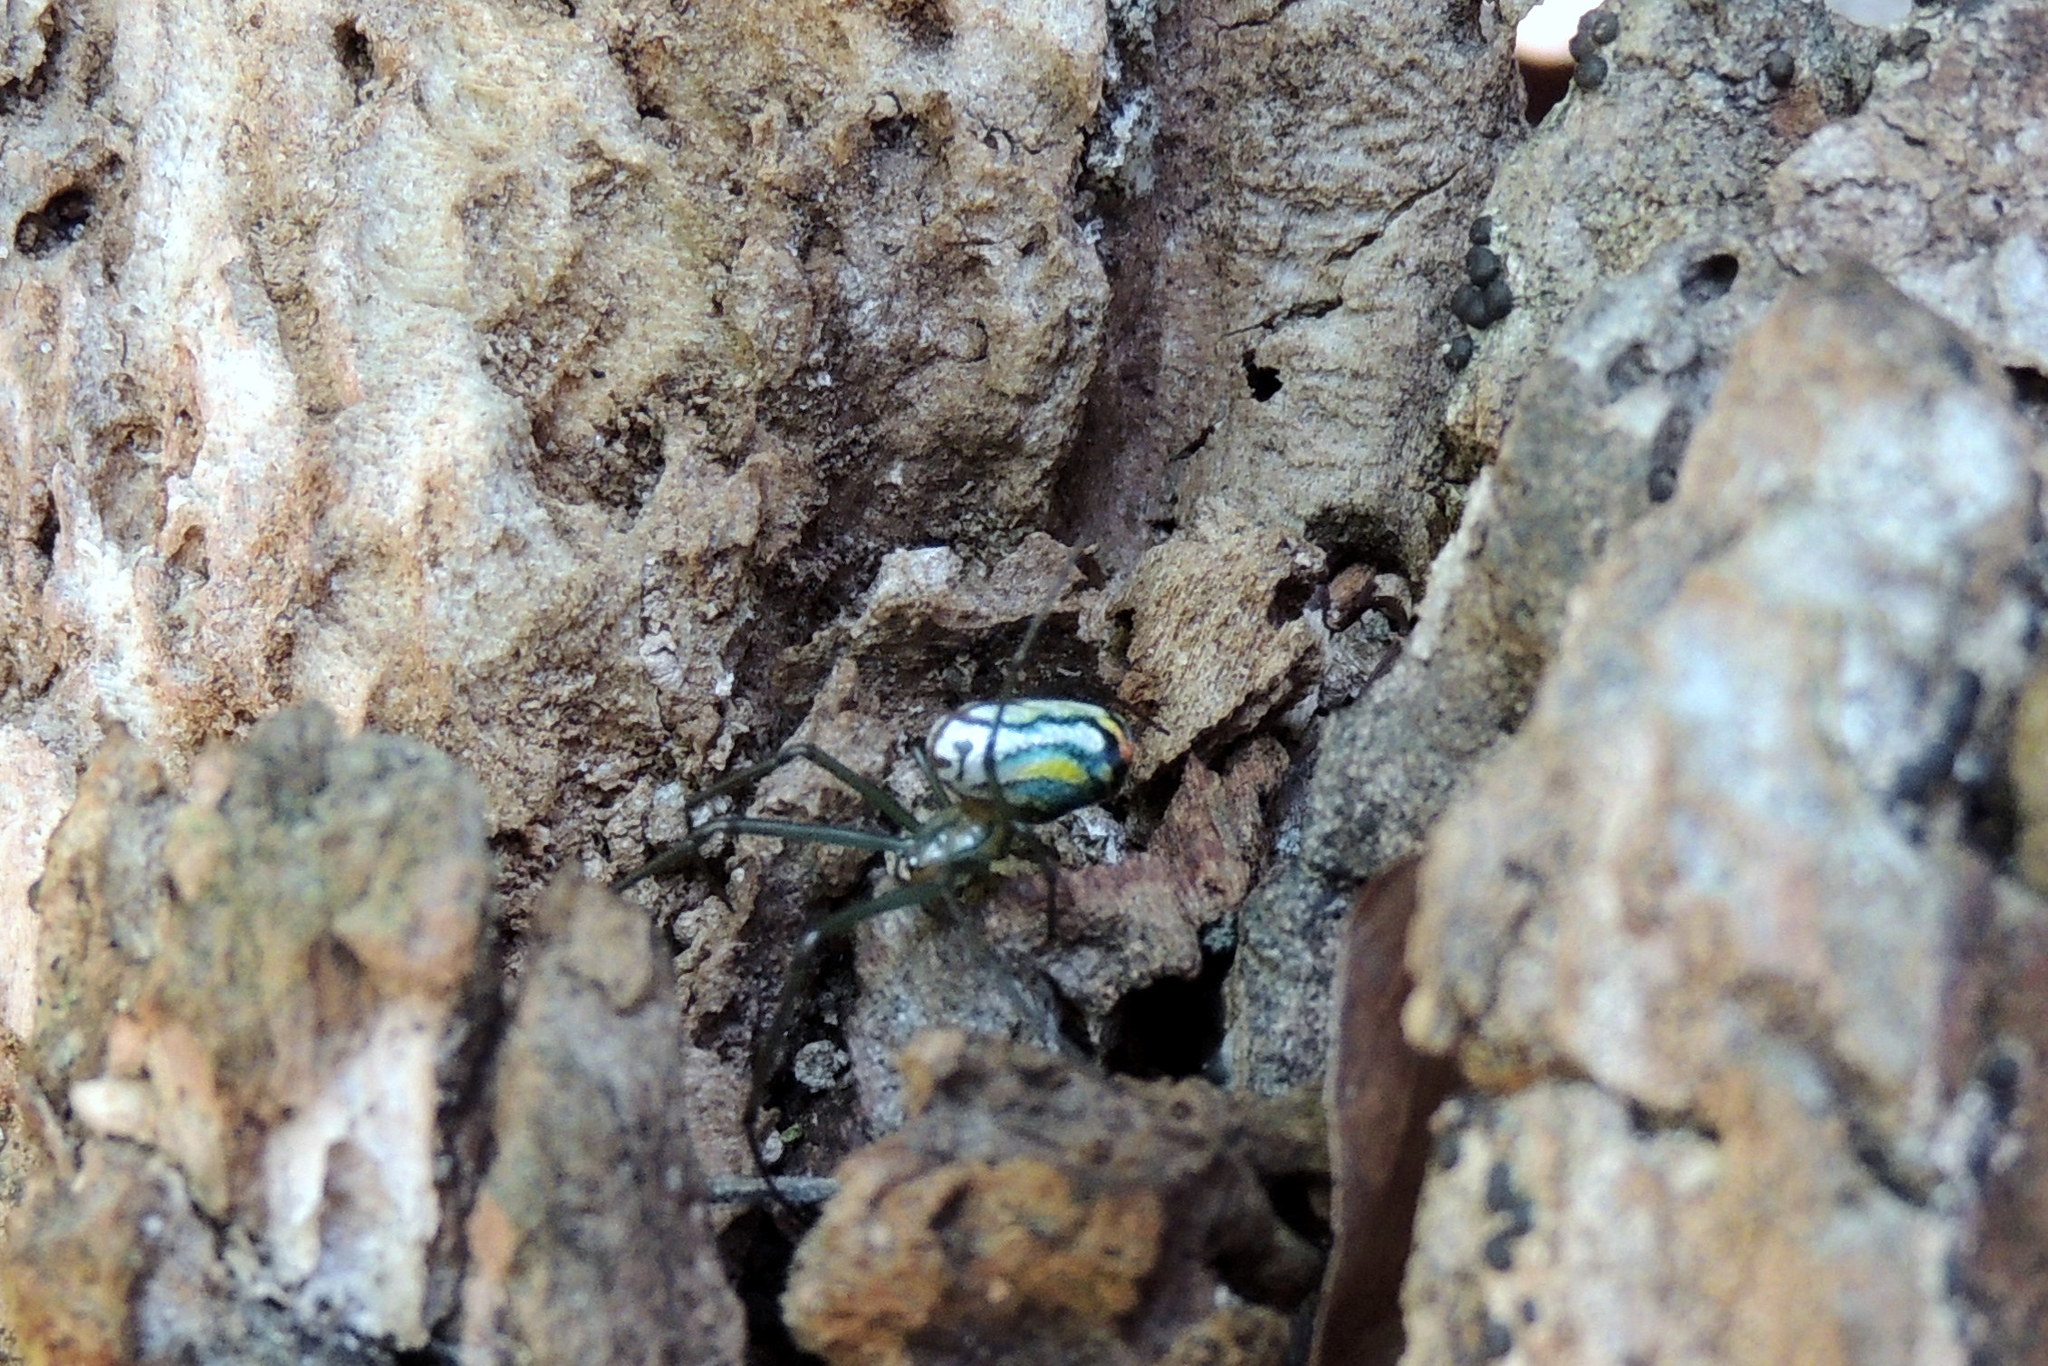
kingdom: Animalia
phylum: Arthropoda
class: Arachnida
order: Araneae
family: Tetragnathidae
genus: Leucauge
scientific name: Leucauge argyrobapta
